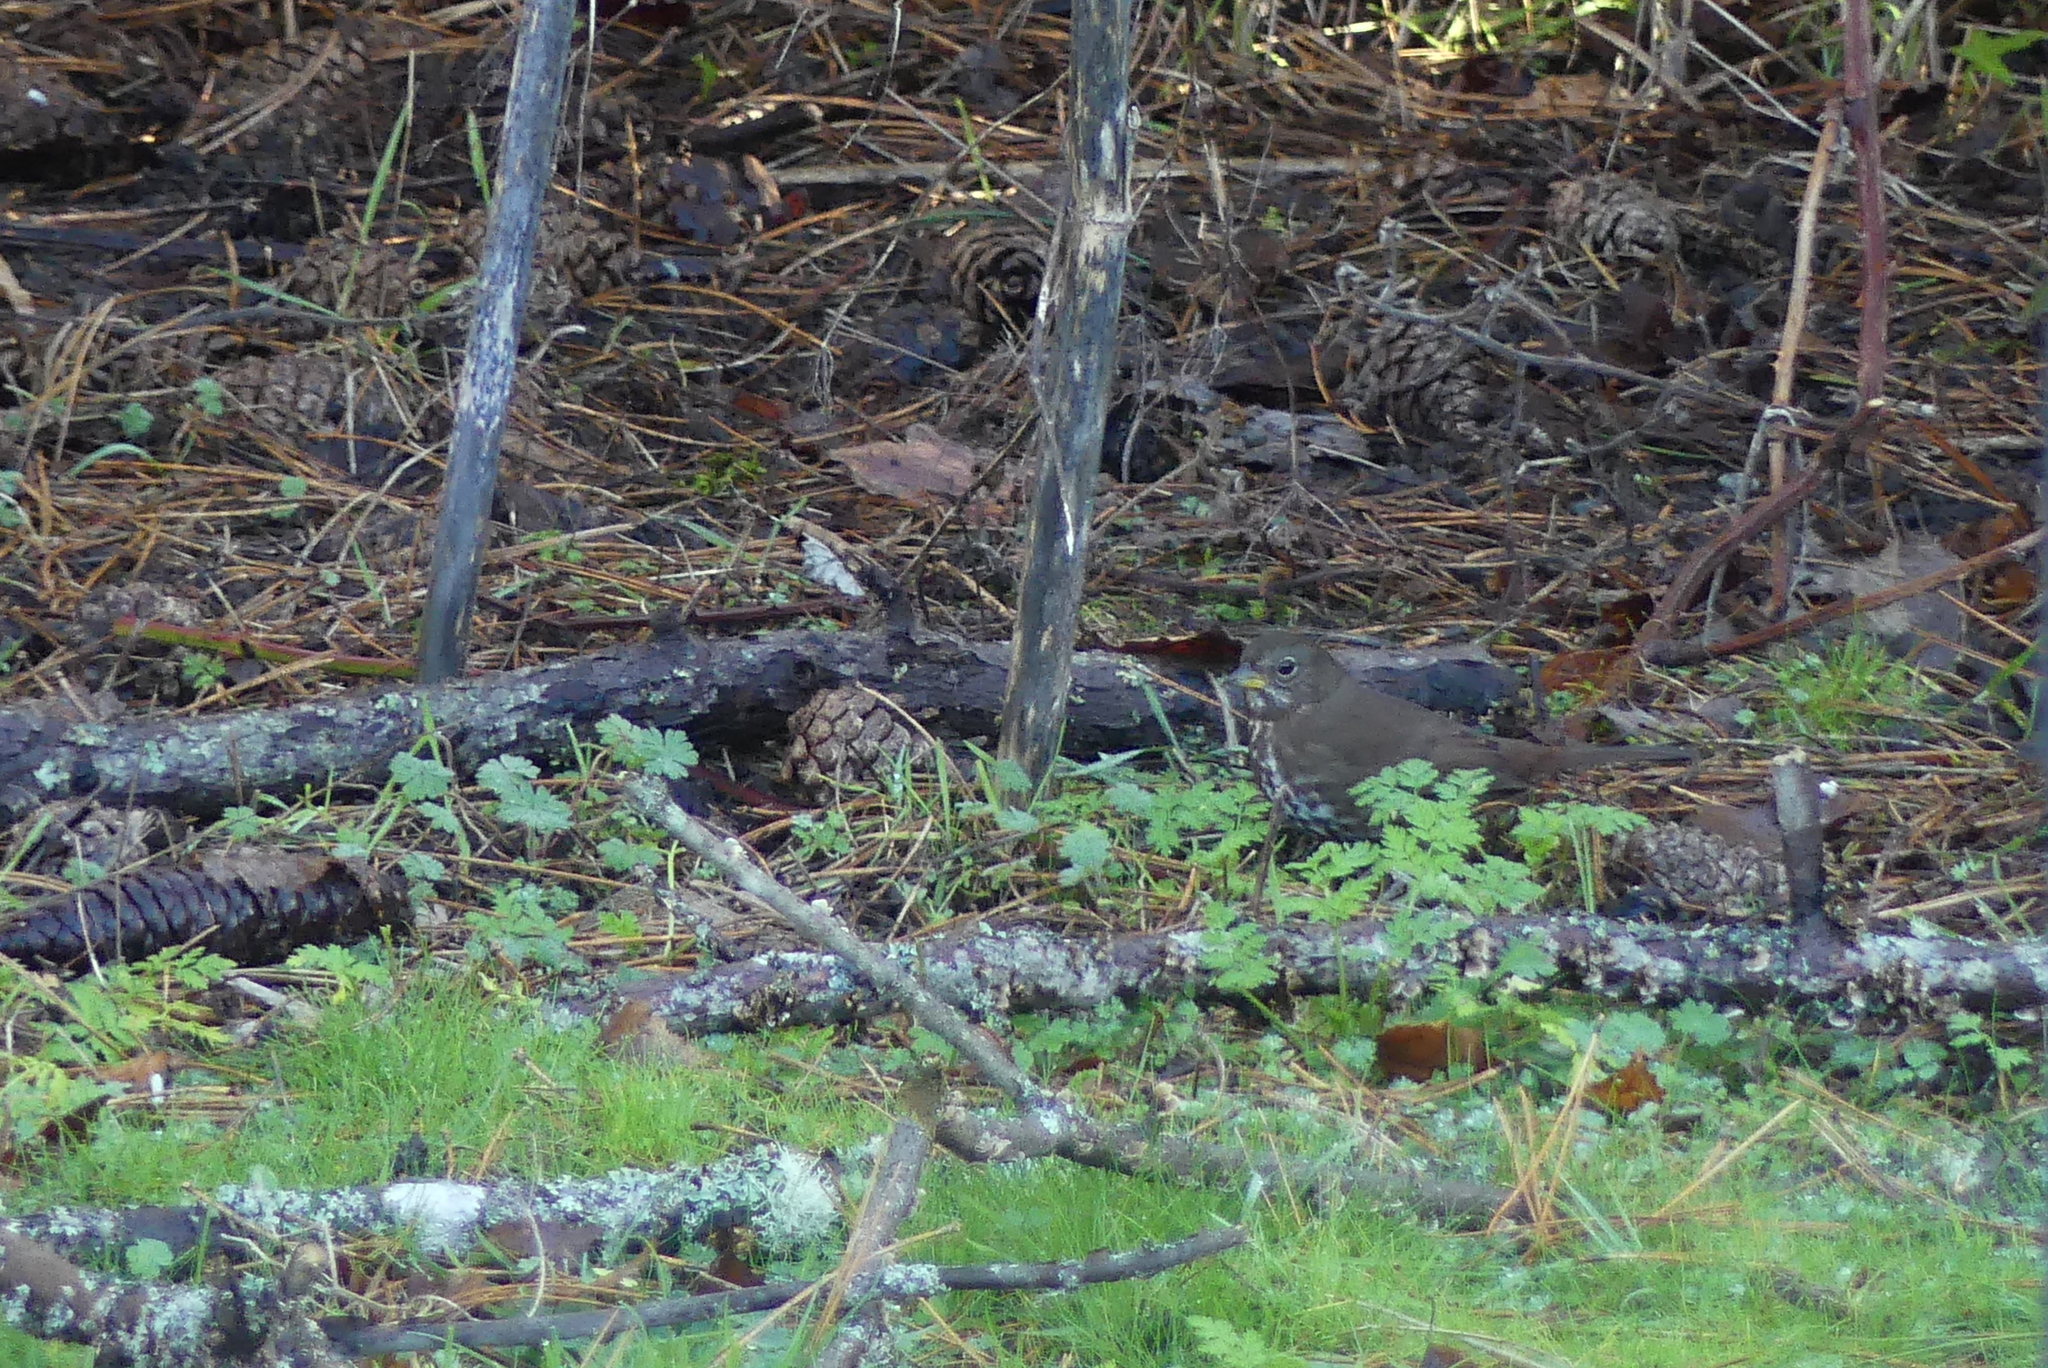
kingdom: Animalia
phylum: Chordata
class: Aves
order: Passeriformes
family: Passerellidae
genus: Passerella
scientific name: Passerella iliaca
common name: Fox sparrow
